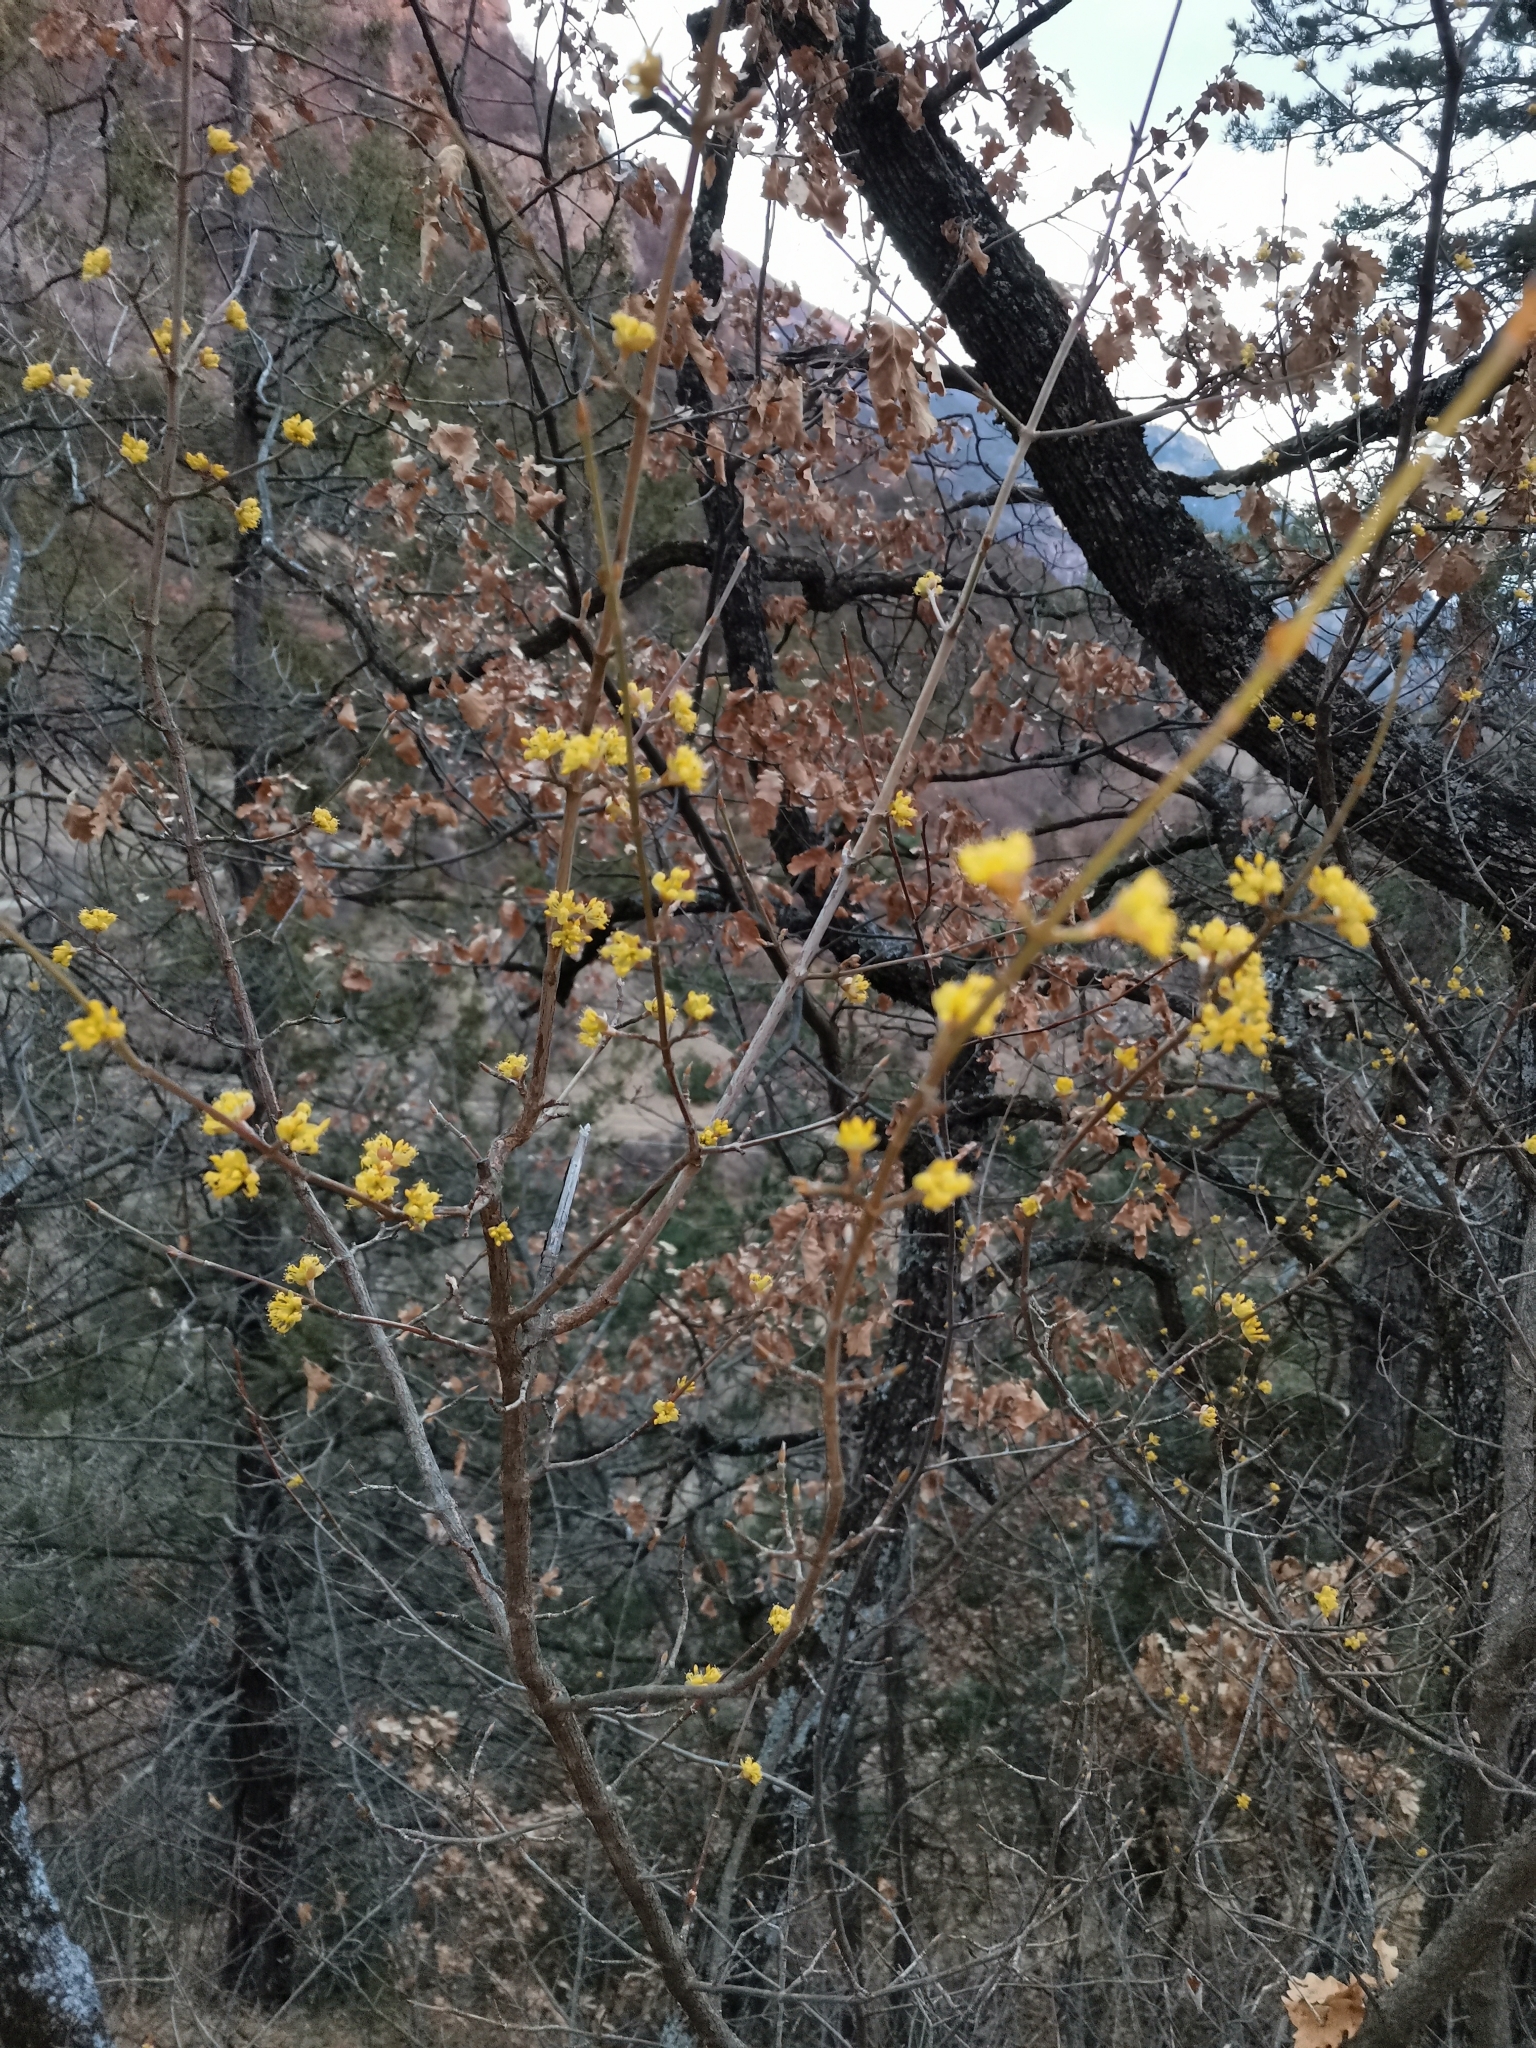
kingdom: Plantae
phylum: Tracheophyta
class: Magnoliopsida
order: Cornales
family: Cornaceae
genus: Cornus
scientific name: Cornus mas
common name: Cornelian-cherry
